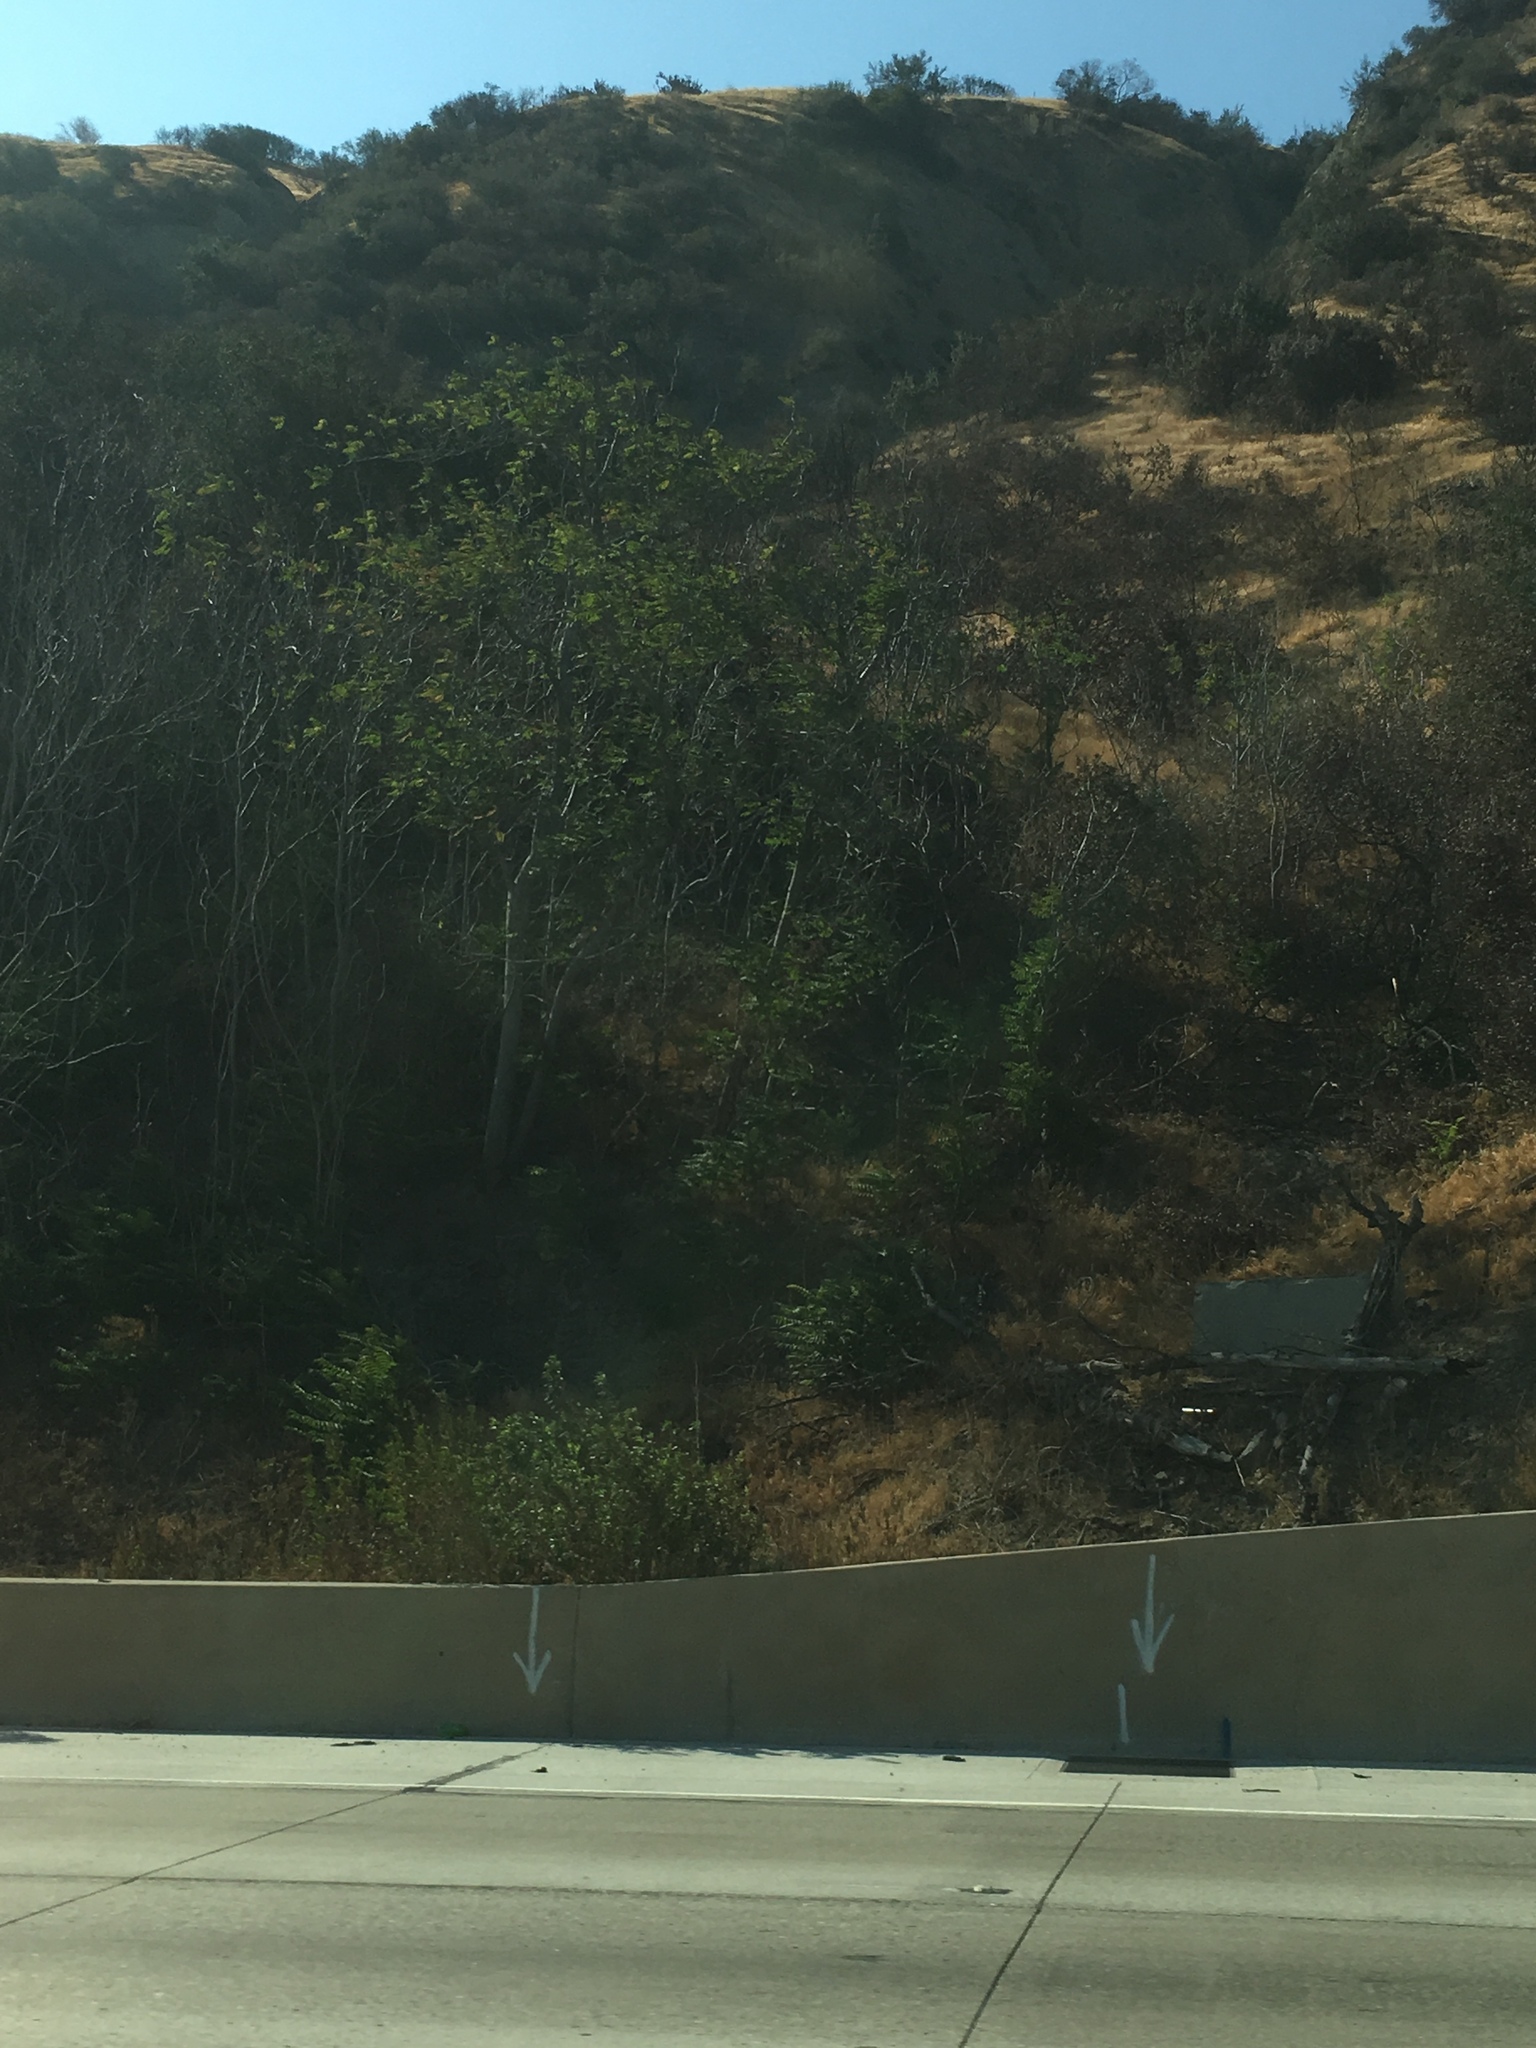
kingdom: Plantae
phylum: Tracheophyta
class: Magnoliopsida
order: Sapindales
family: Simaroubaceae
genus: Ailanthus
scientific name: Ailanthus altissima
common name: Tree-of-heaven
